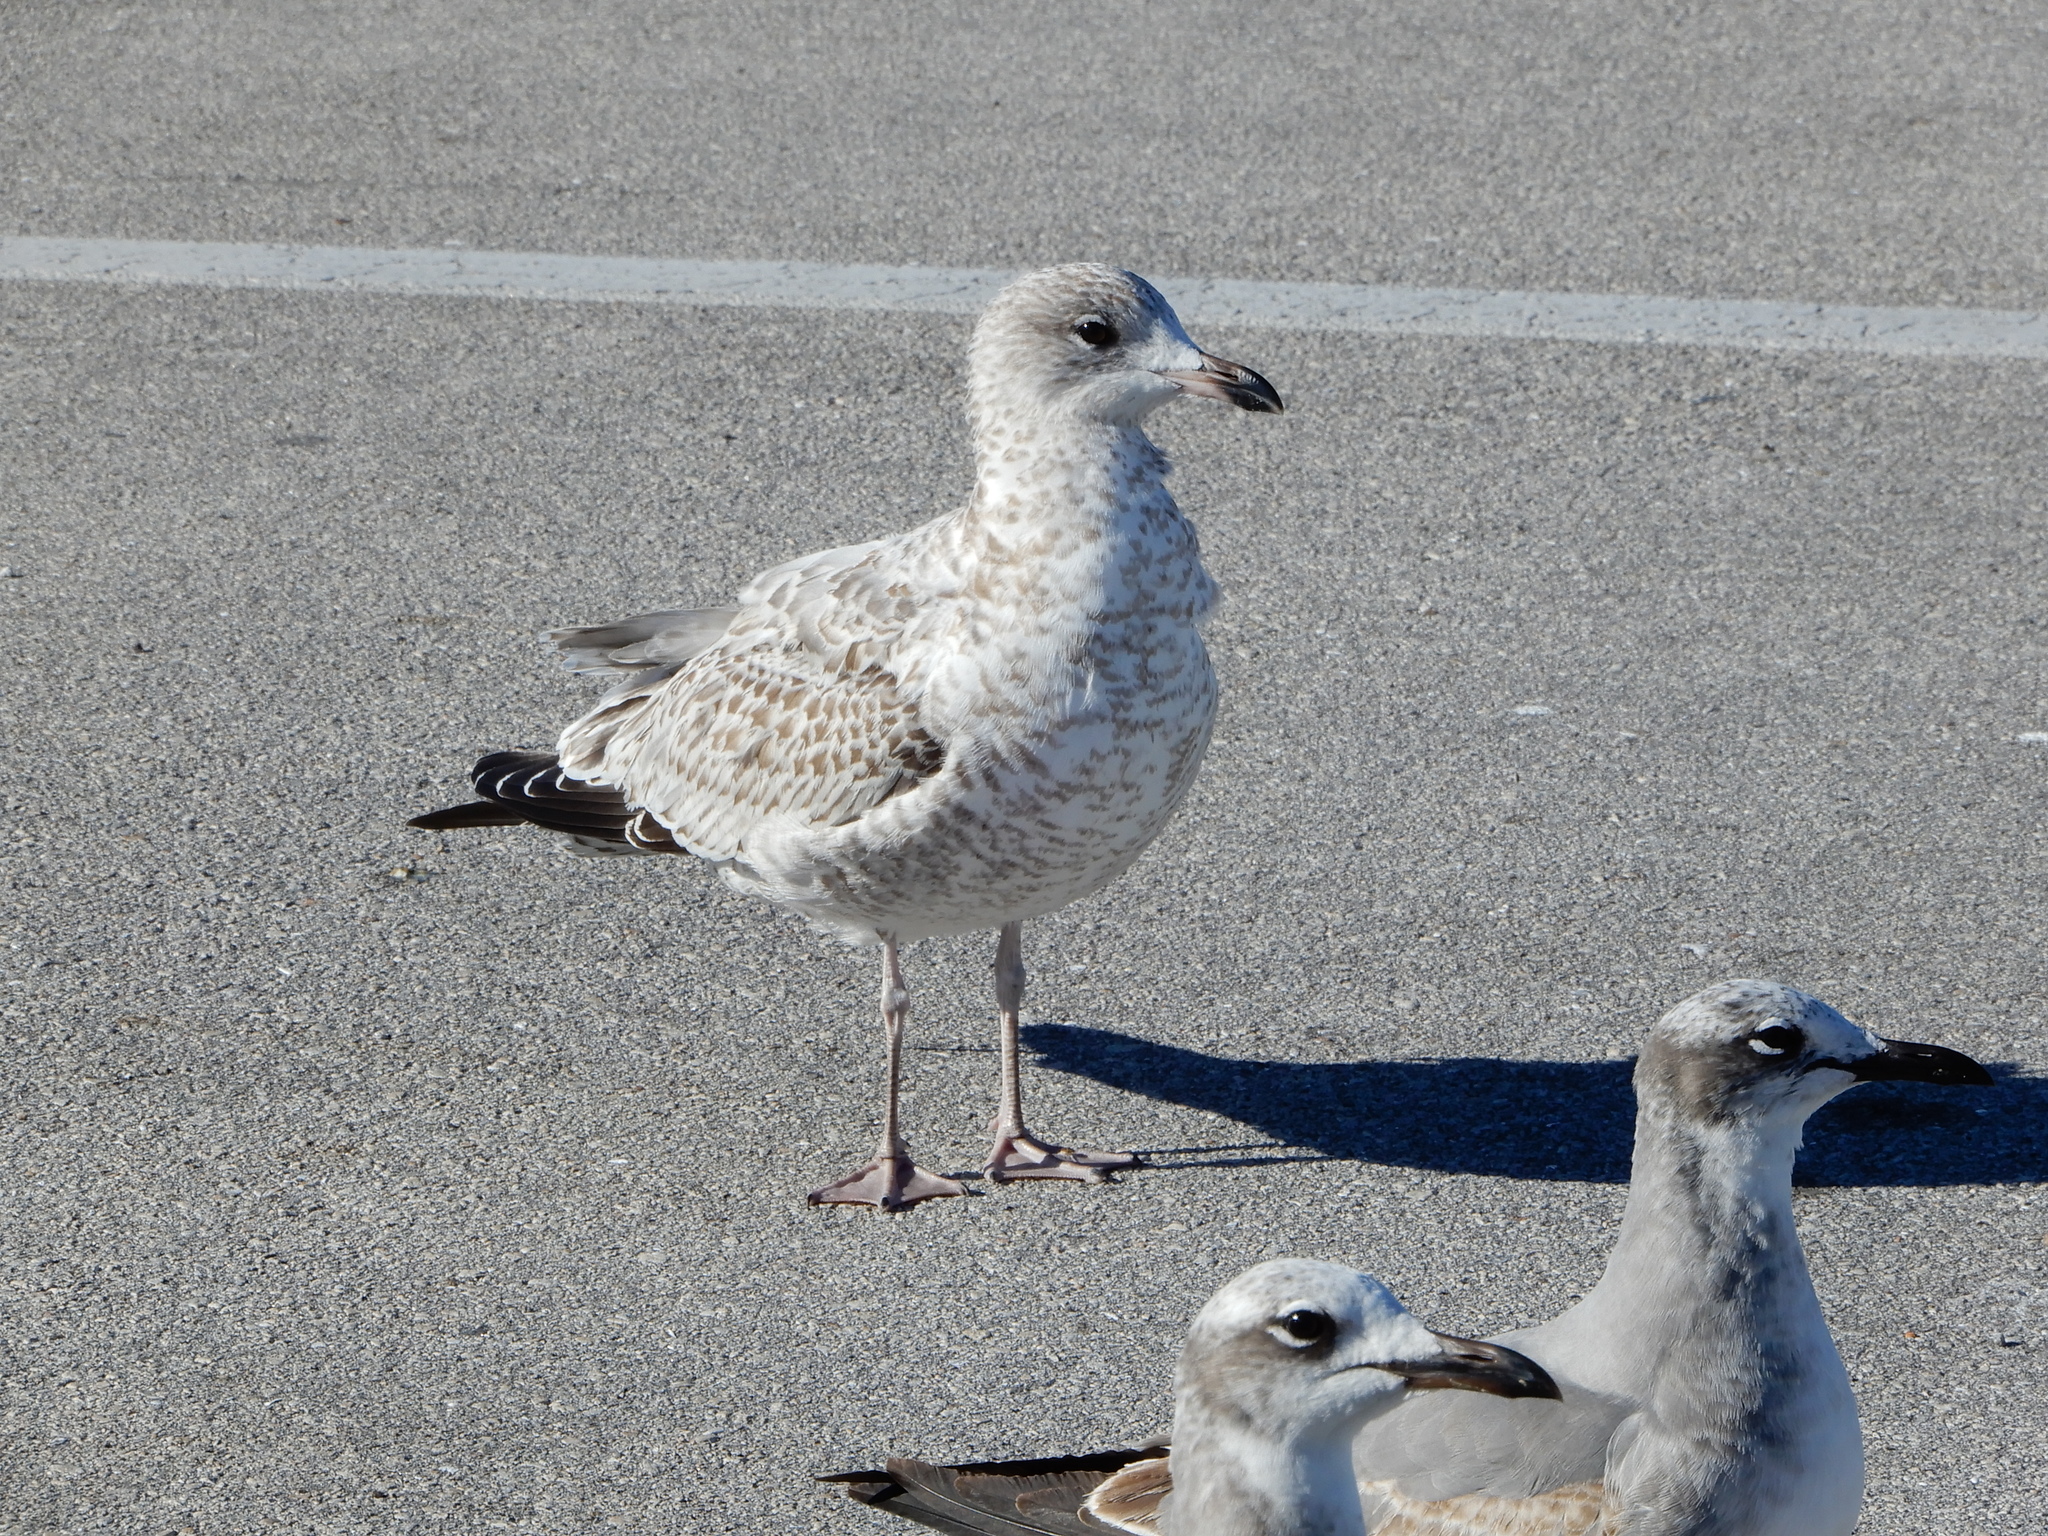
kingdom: Animalia
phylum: Chordata
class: Aves
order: Charadriiformes
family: Laridae
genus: Larus
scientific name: Larus delawarensis
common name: Ring-billed gull
